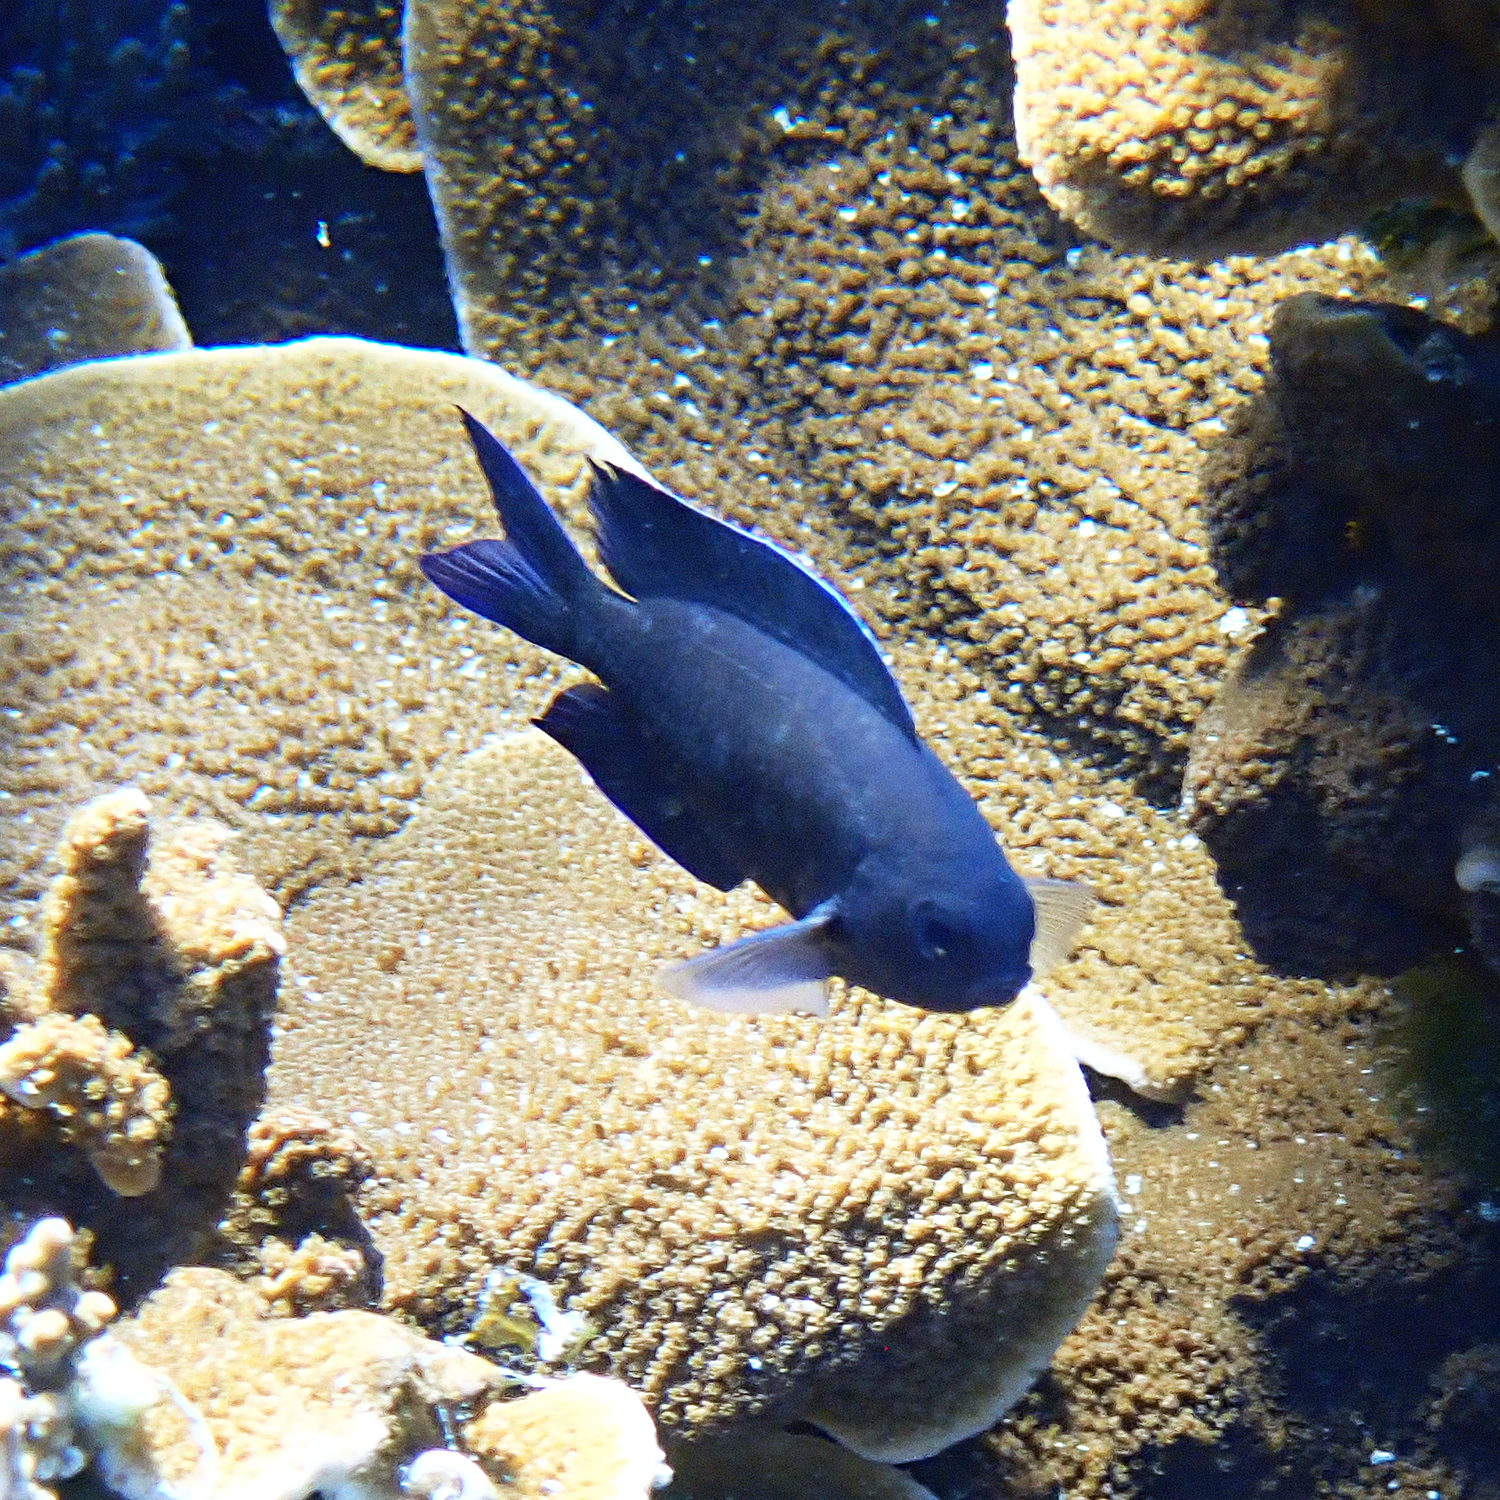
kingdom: Animalia
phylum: Chordata
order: Perciformes
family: Pomacentridae
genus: Chrysiptera
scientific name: Chrysiptera notialis
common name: Southern demoiselle
